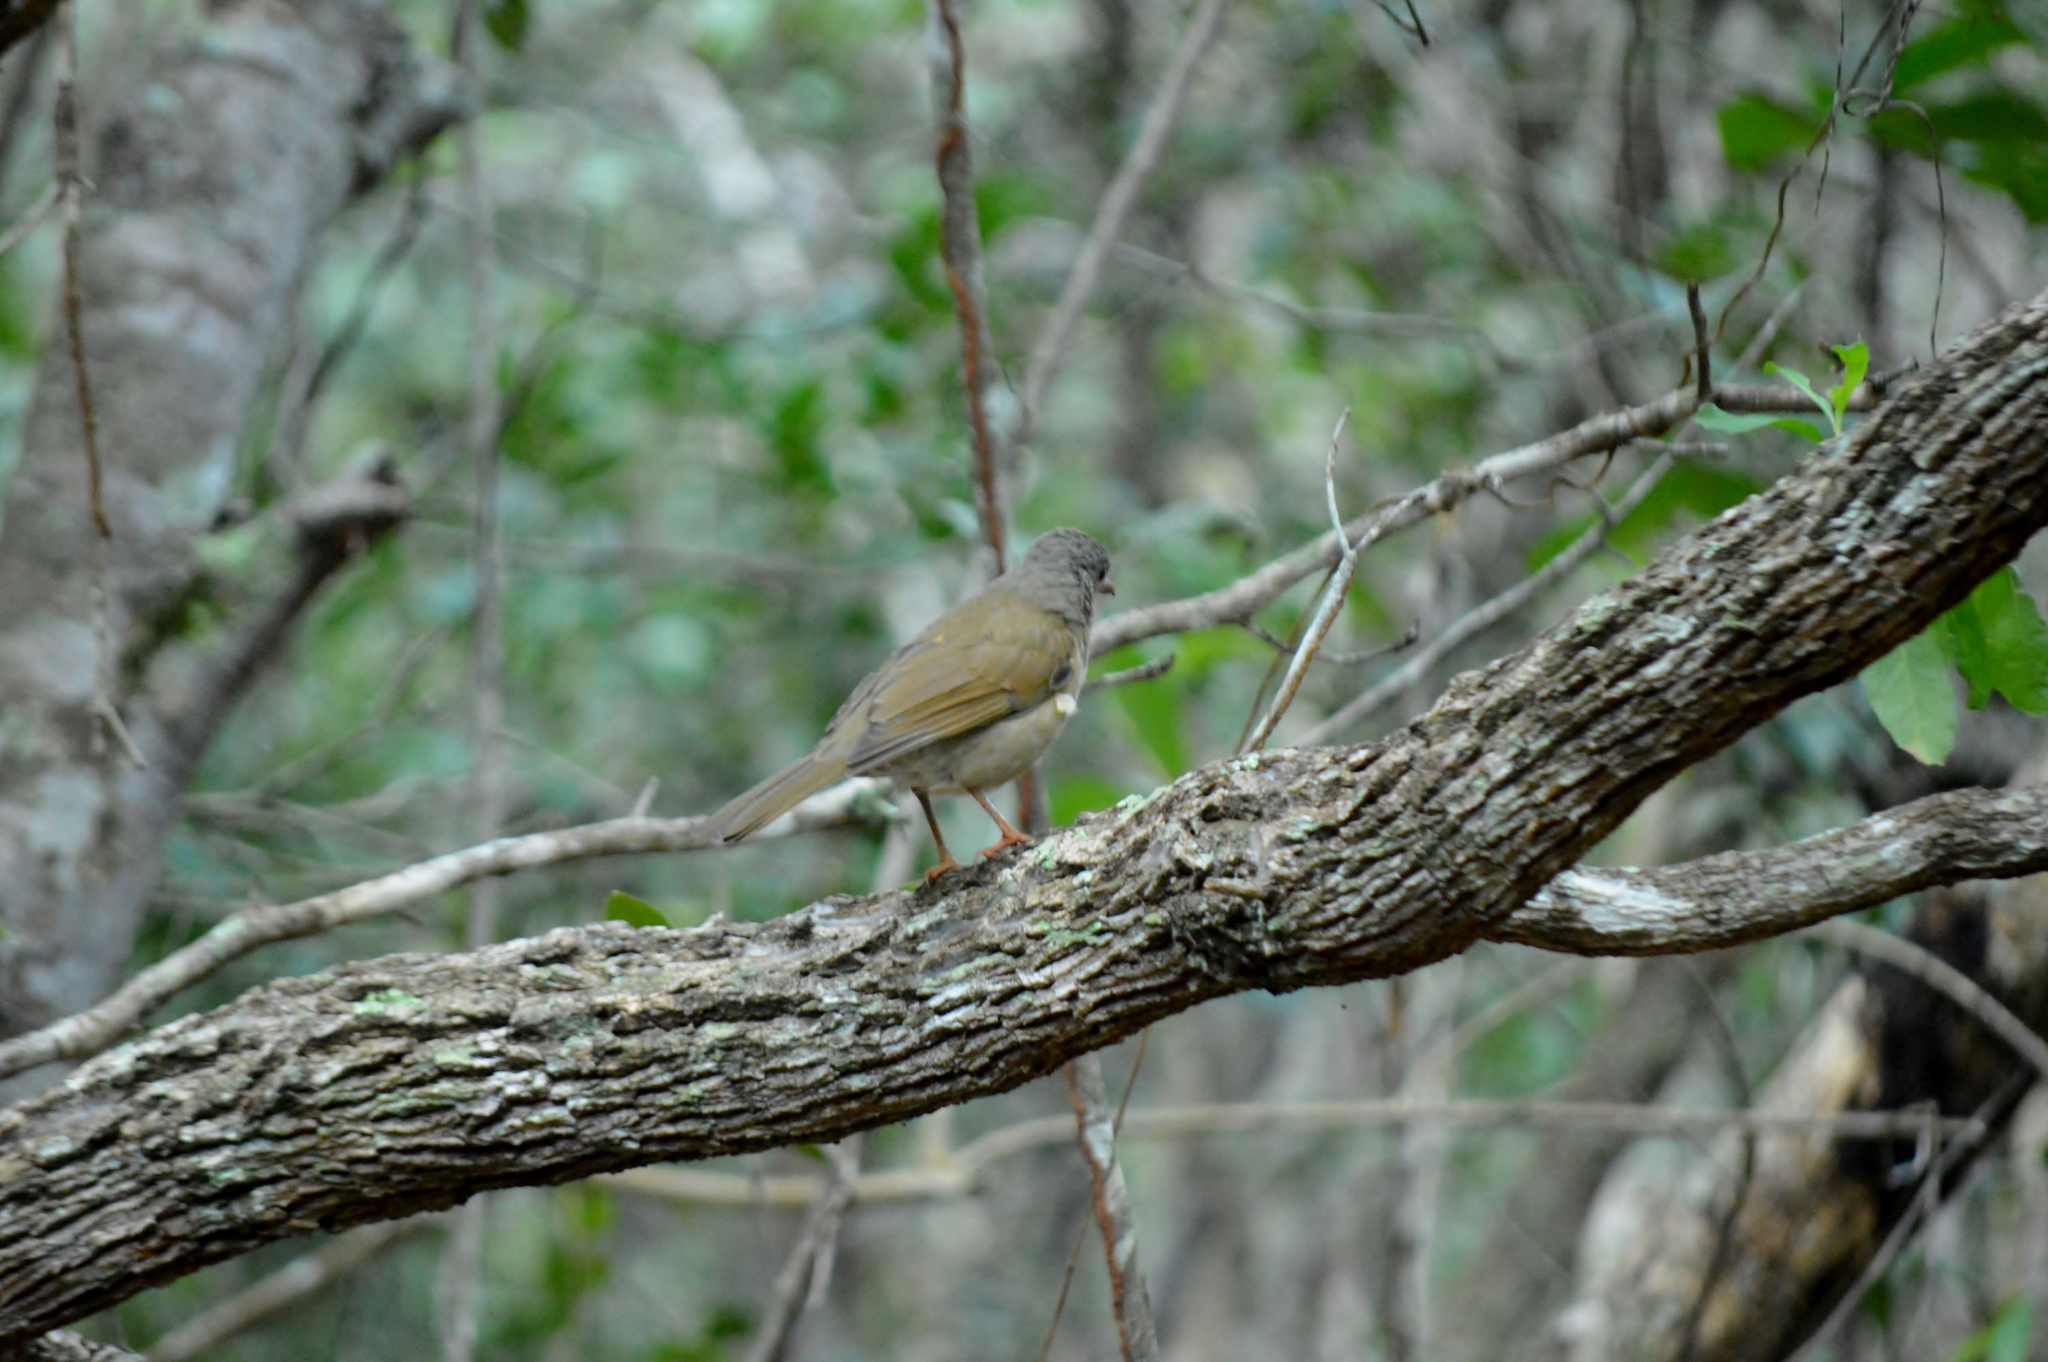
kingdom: Animalia
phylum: Chordata
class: Aves
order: Passeriformes
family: Turdidae
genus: Turdus
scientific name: Turdus leucomelas
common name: Pale-breasted thrush
